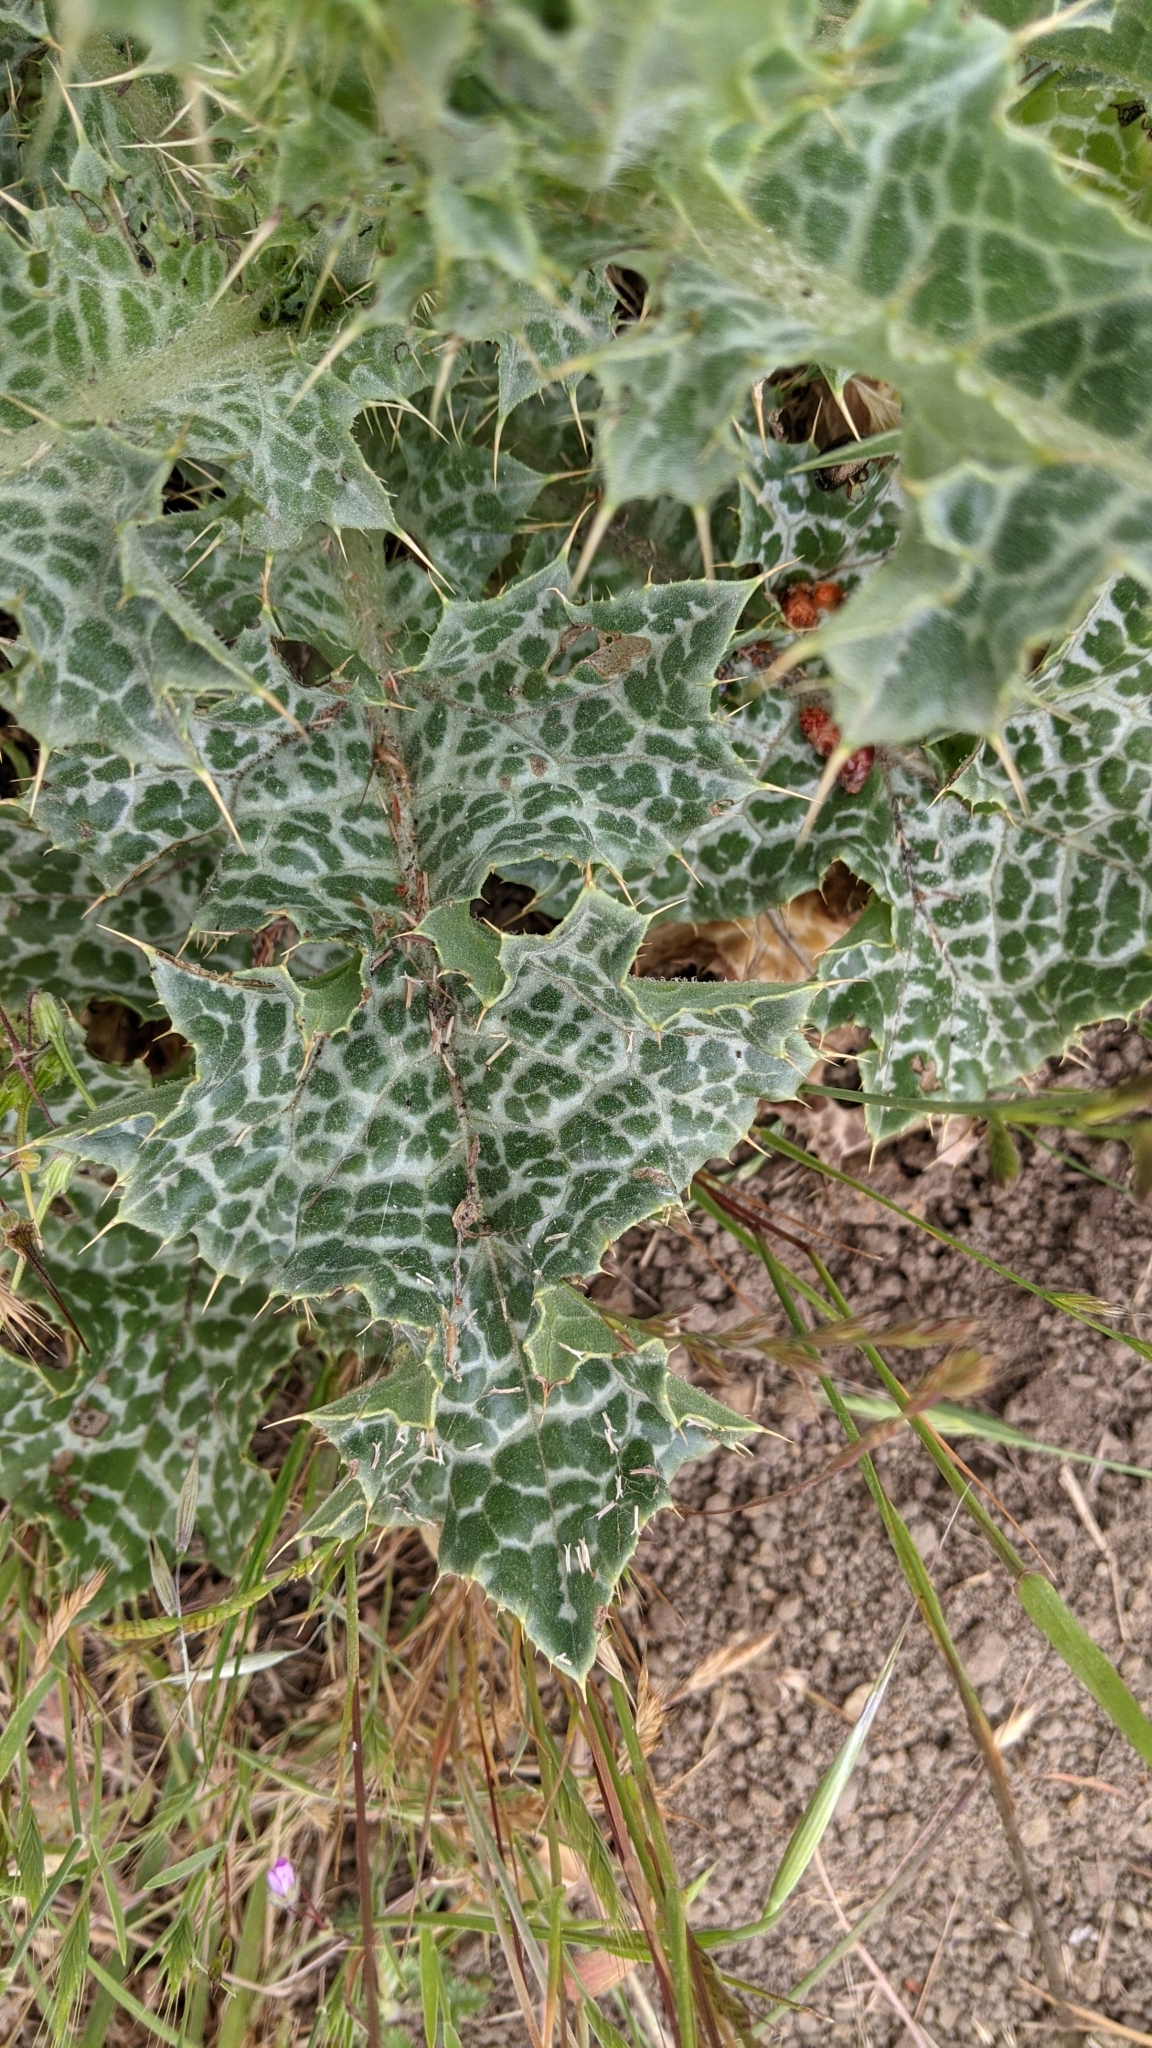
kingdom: Plantae
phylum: Tracheophyta
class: Magnoliopsida
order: Asterales
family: Asteraceae
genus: Silybum
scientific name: Silybum marianum
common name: Milk thistle
